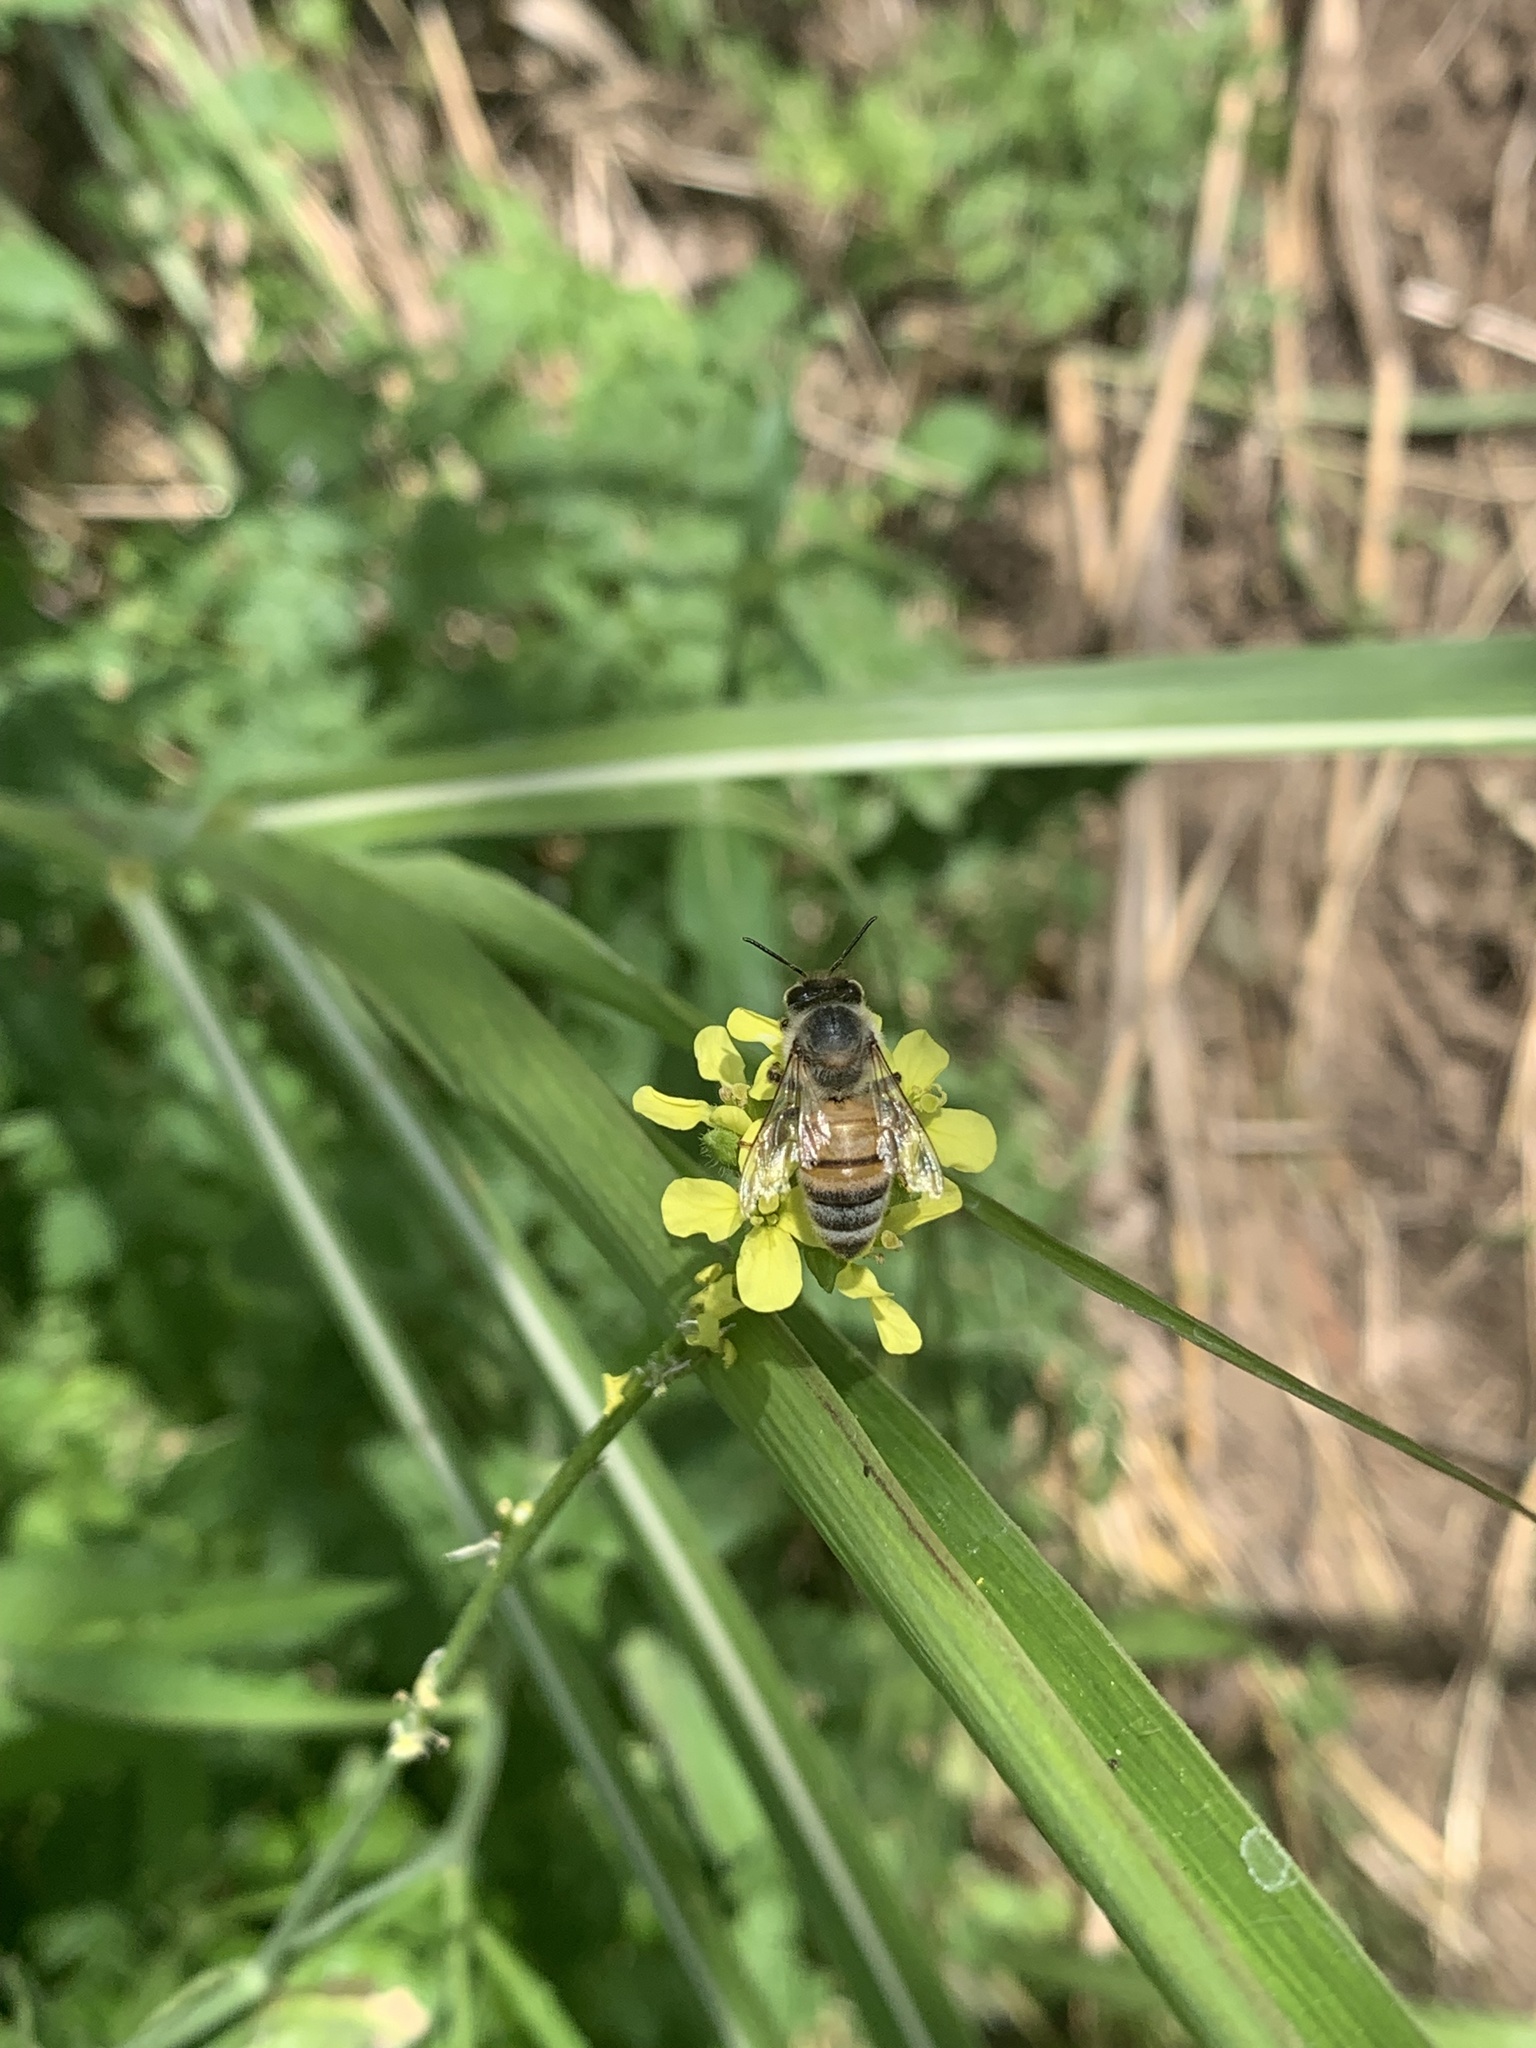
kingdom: Animalia
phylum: Arthropoda
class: Insecta
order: Hymenoptera
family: Apidae
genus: Apis
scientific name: Apis mellifera
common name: Honey bee
